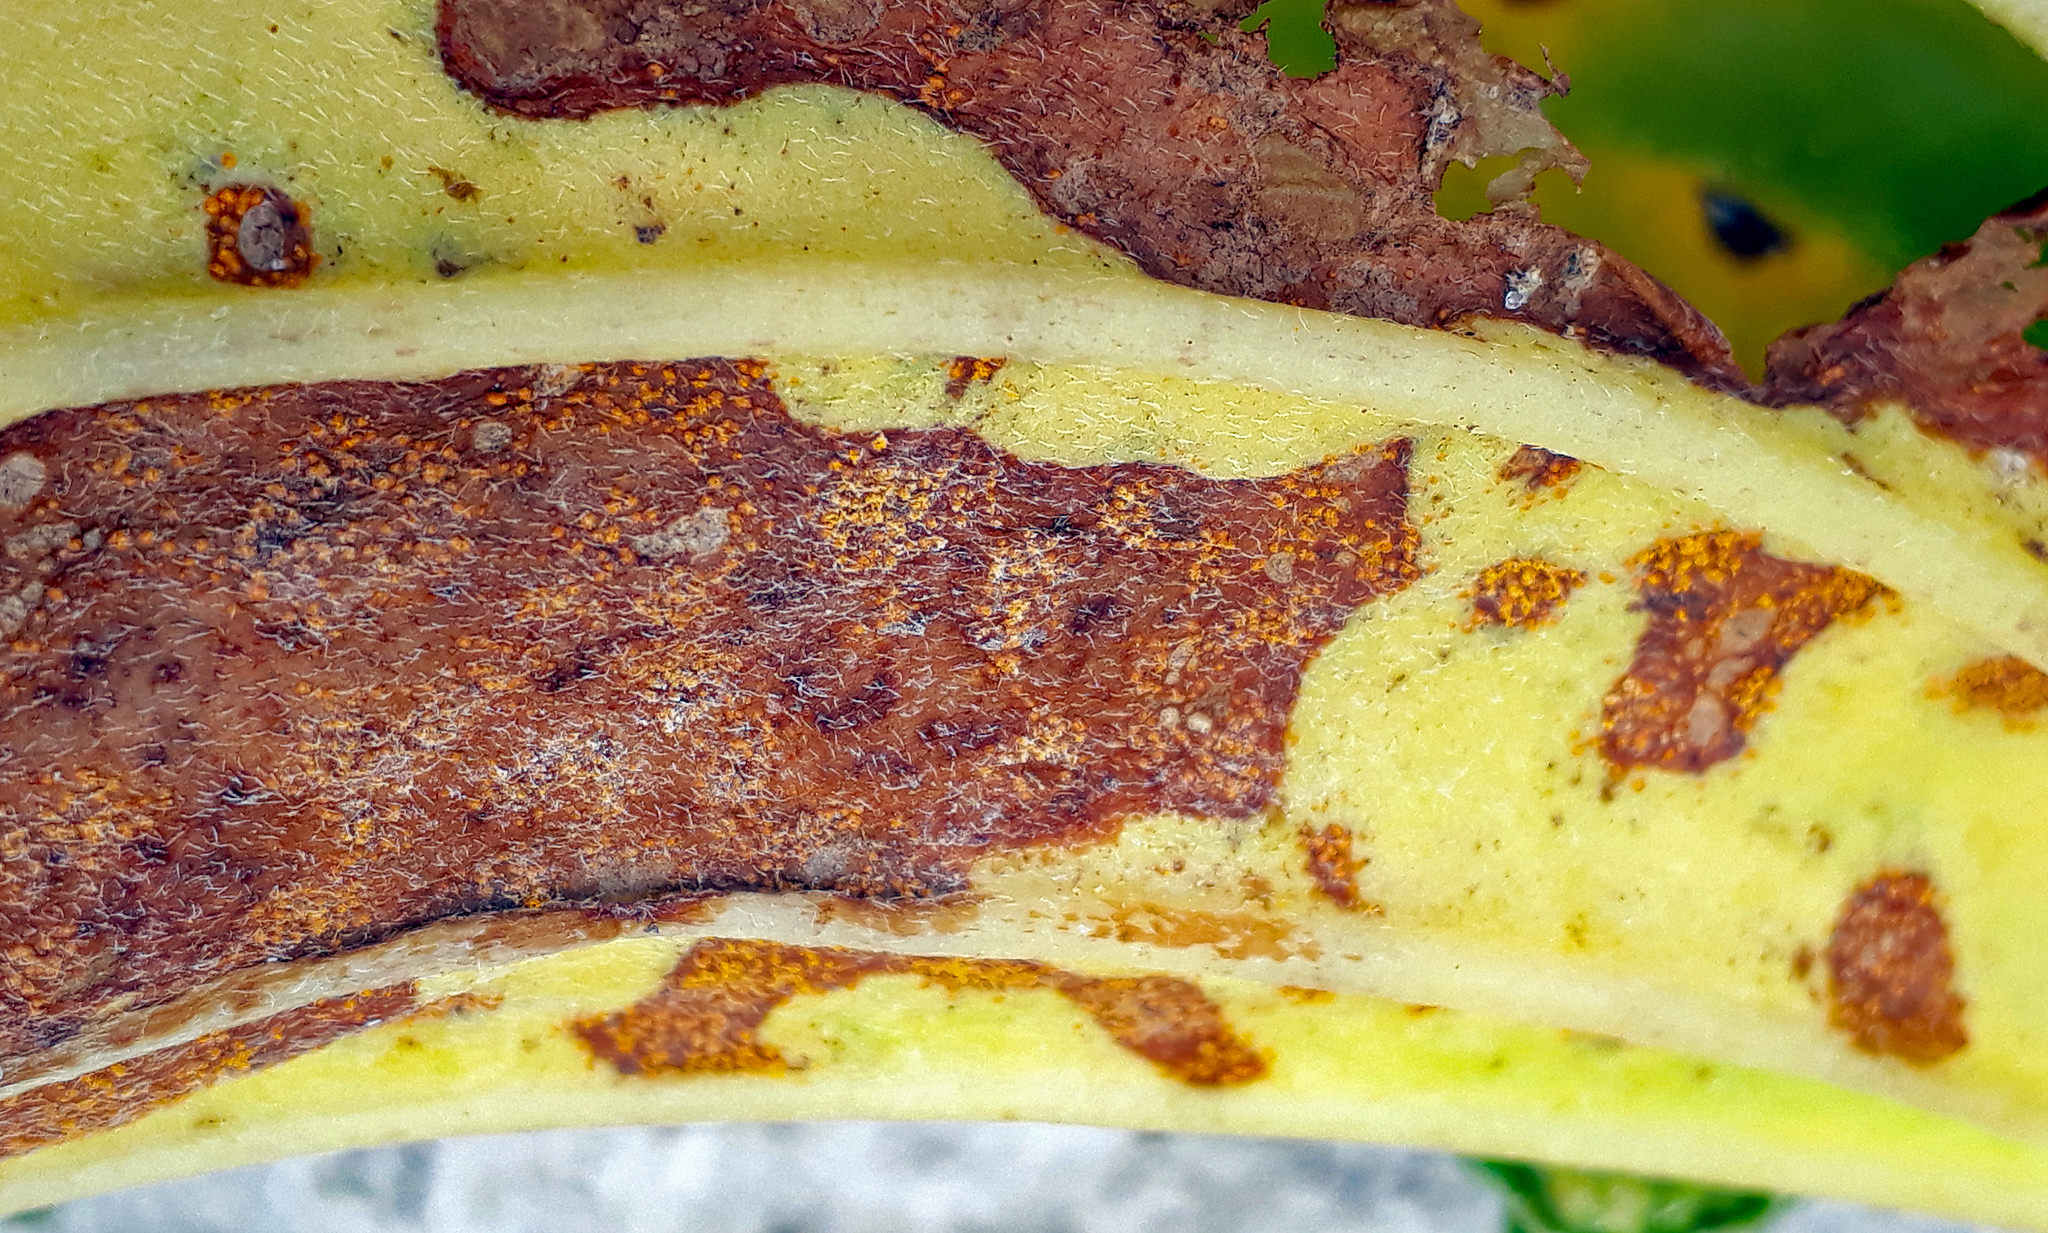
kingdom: Fungi
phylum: Basidiomycota
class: Pucciniomycetes
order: Pucciniales
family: Pucciniastraceae
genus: Pucciniastrum
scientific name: Pucciniastrum myosotidii
